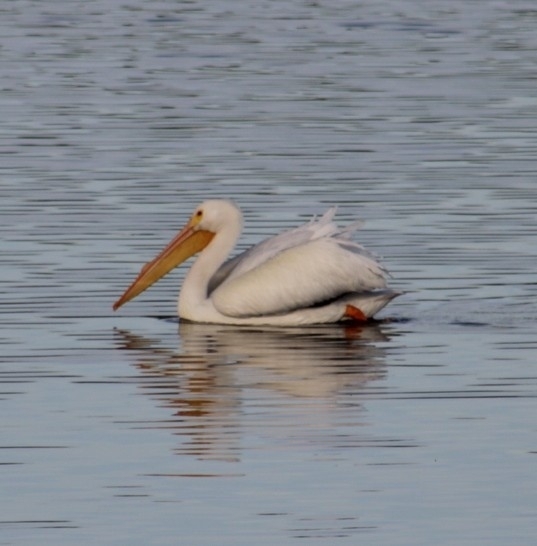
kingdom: Animalia
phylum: Chordata
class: Aves
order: Pelecaniformes
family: Pelecanidae
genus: Pelecanus
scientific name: Pelecanus erythrorhynchos
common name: American white pelican
